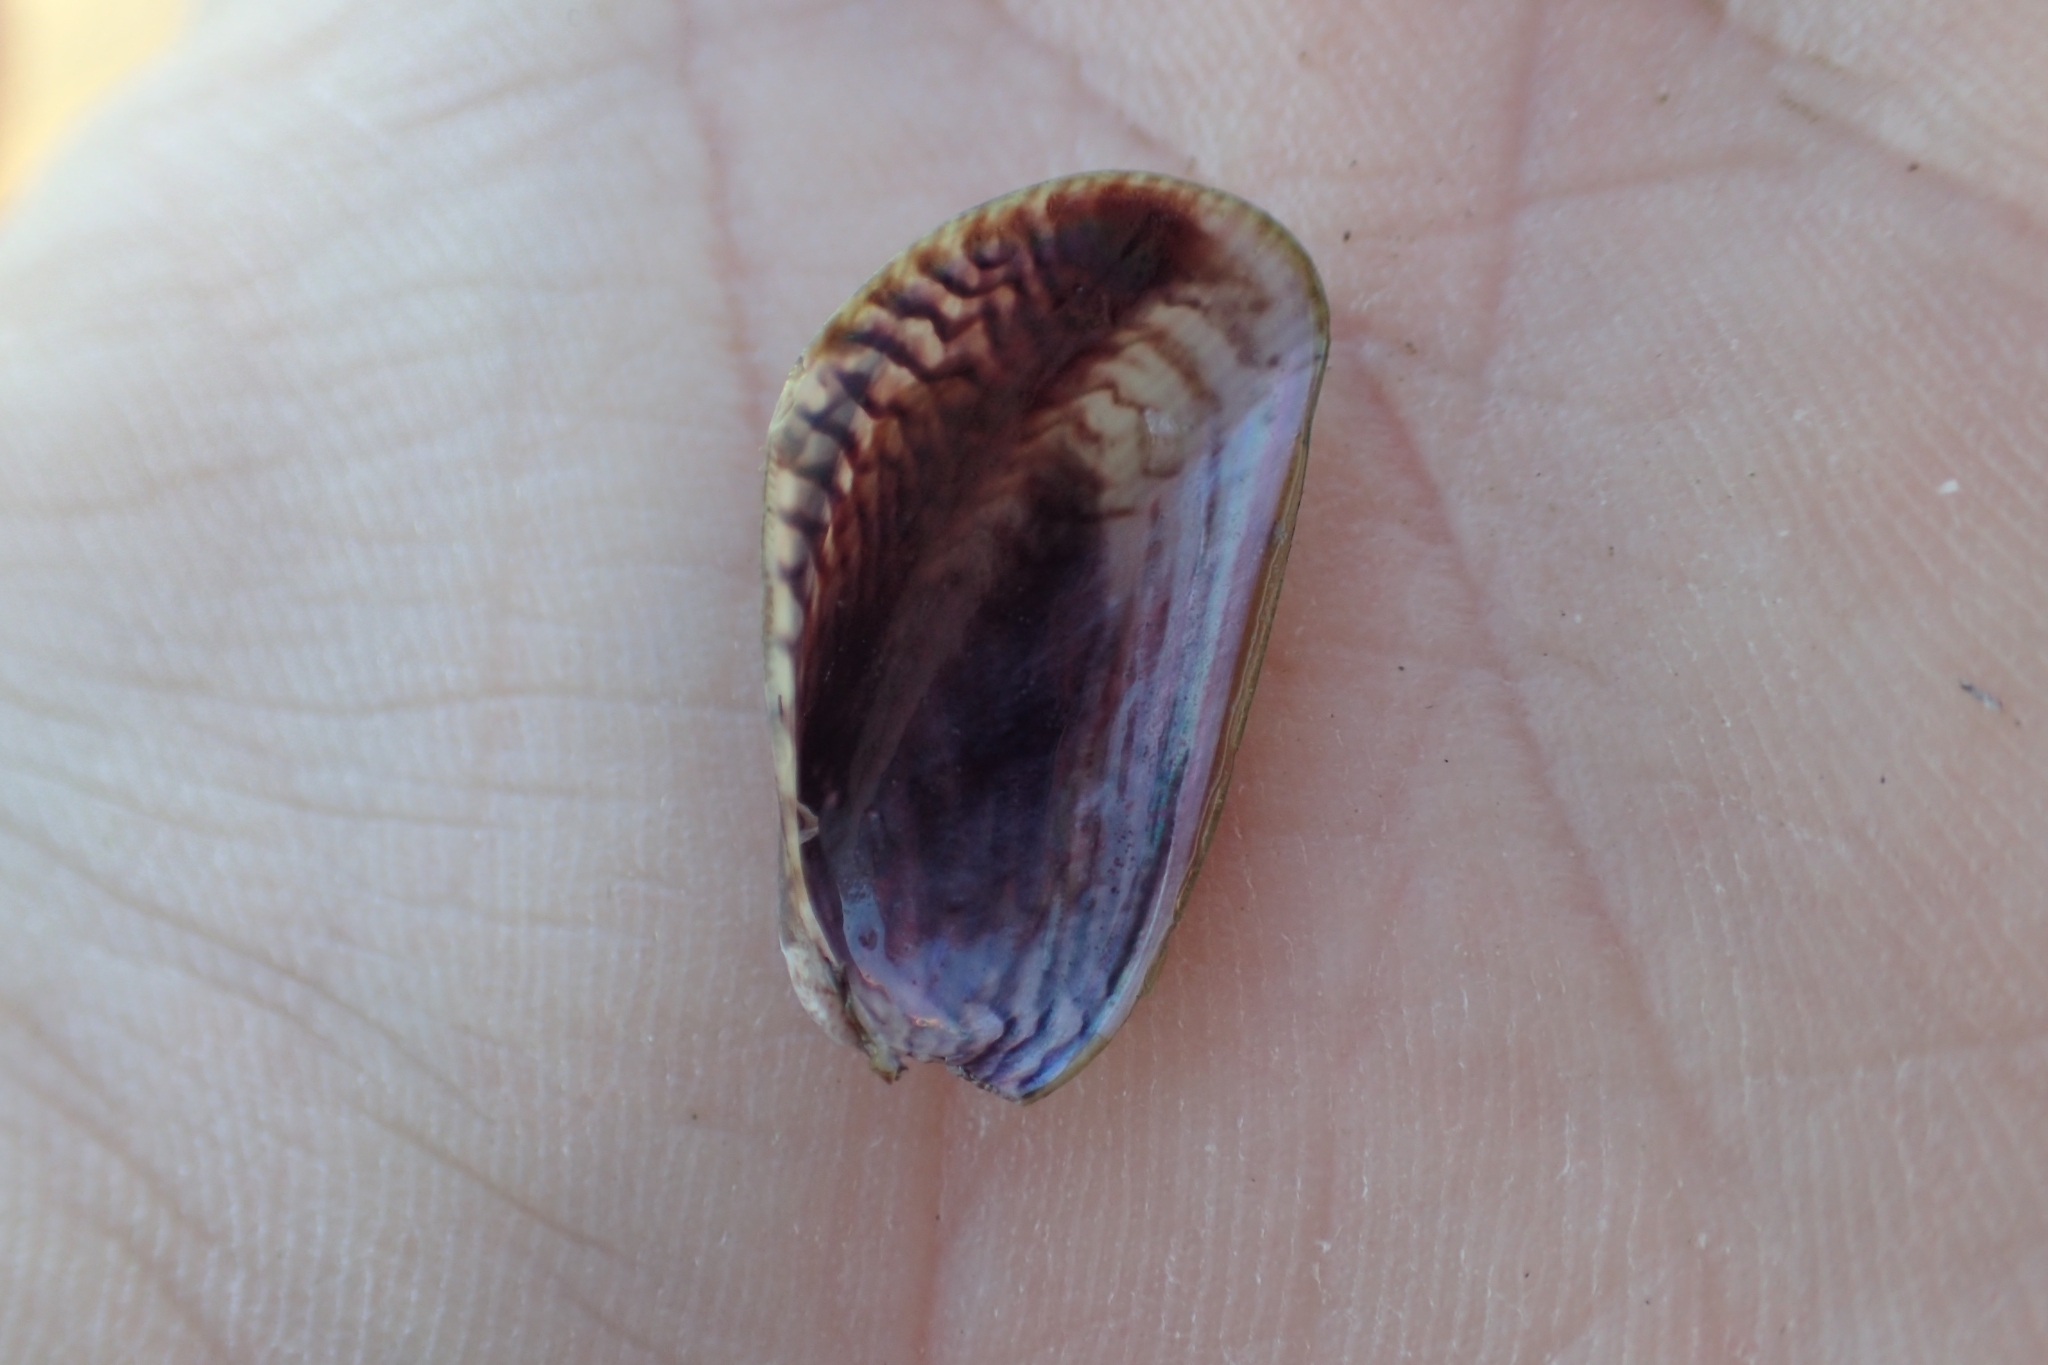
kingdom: Animalia
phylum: Mollusca
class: Bivalvia
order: Mytilida
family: Mytilidae
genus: Arcuatula
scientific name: Arcuatula senhousia
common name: Asian mussel
